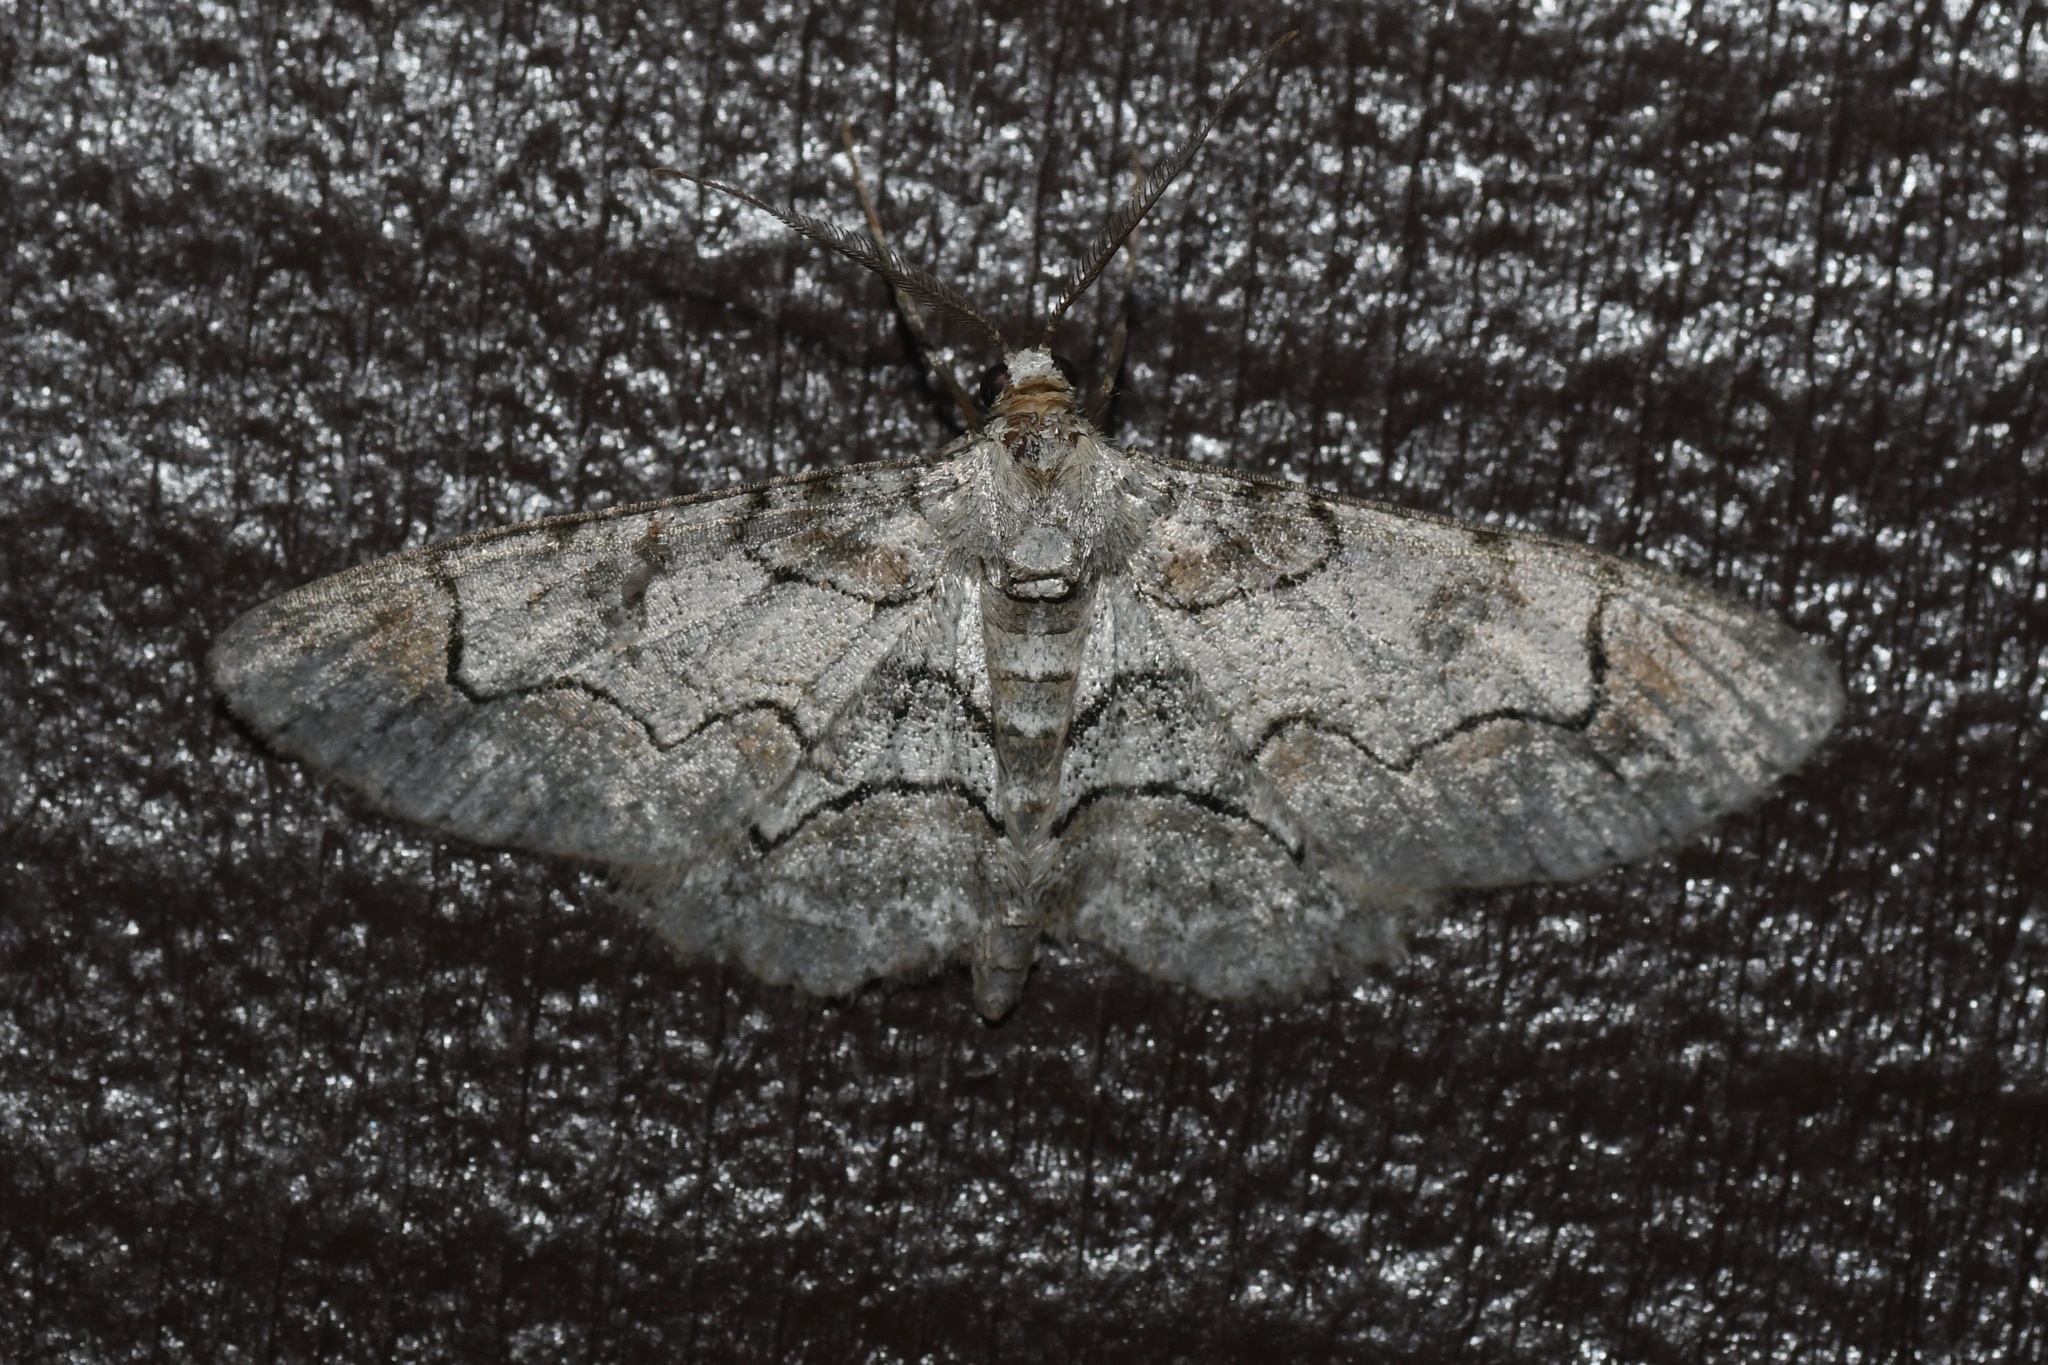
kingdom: Animalia
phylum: Arthropoda
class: Insecta
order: Lepidoptera
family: Geometridae
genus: Iridopsis
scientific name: Iridopsis larvaria
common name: Bent-line gray
